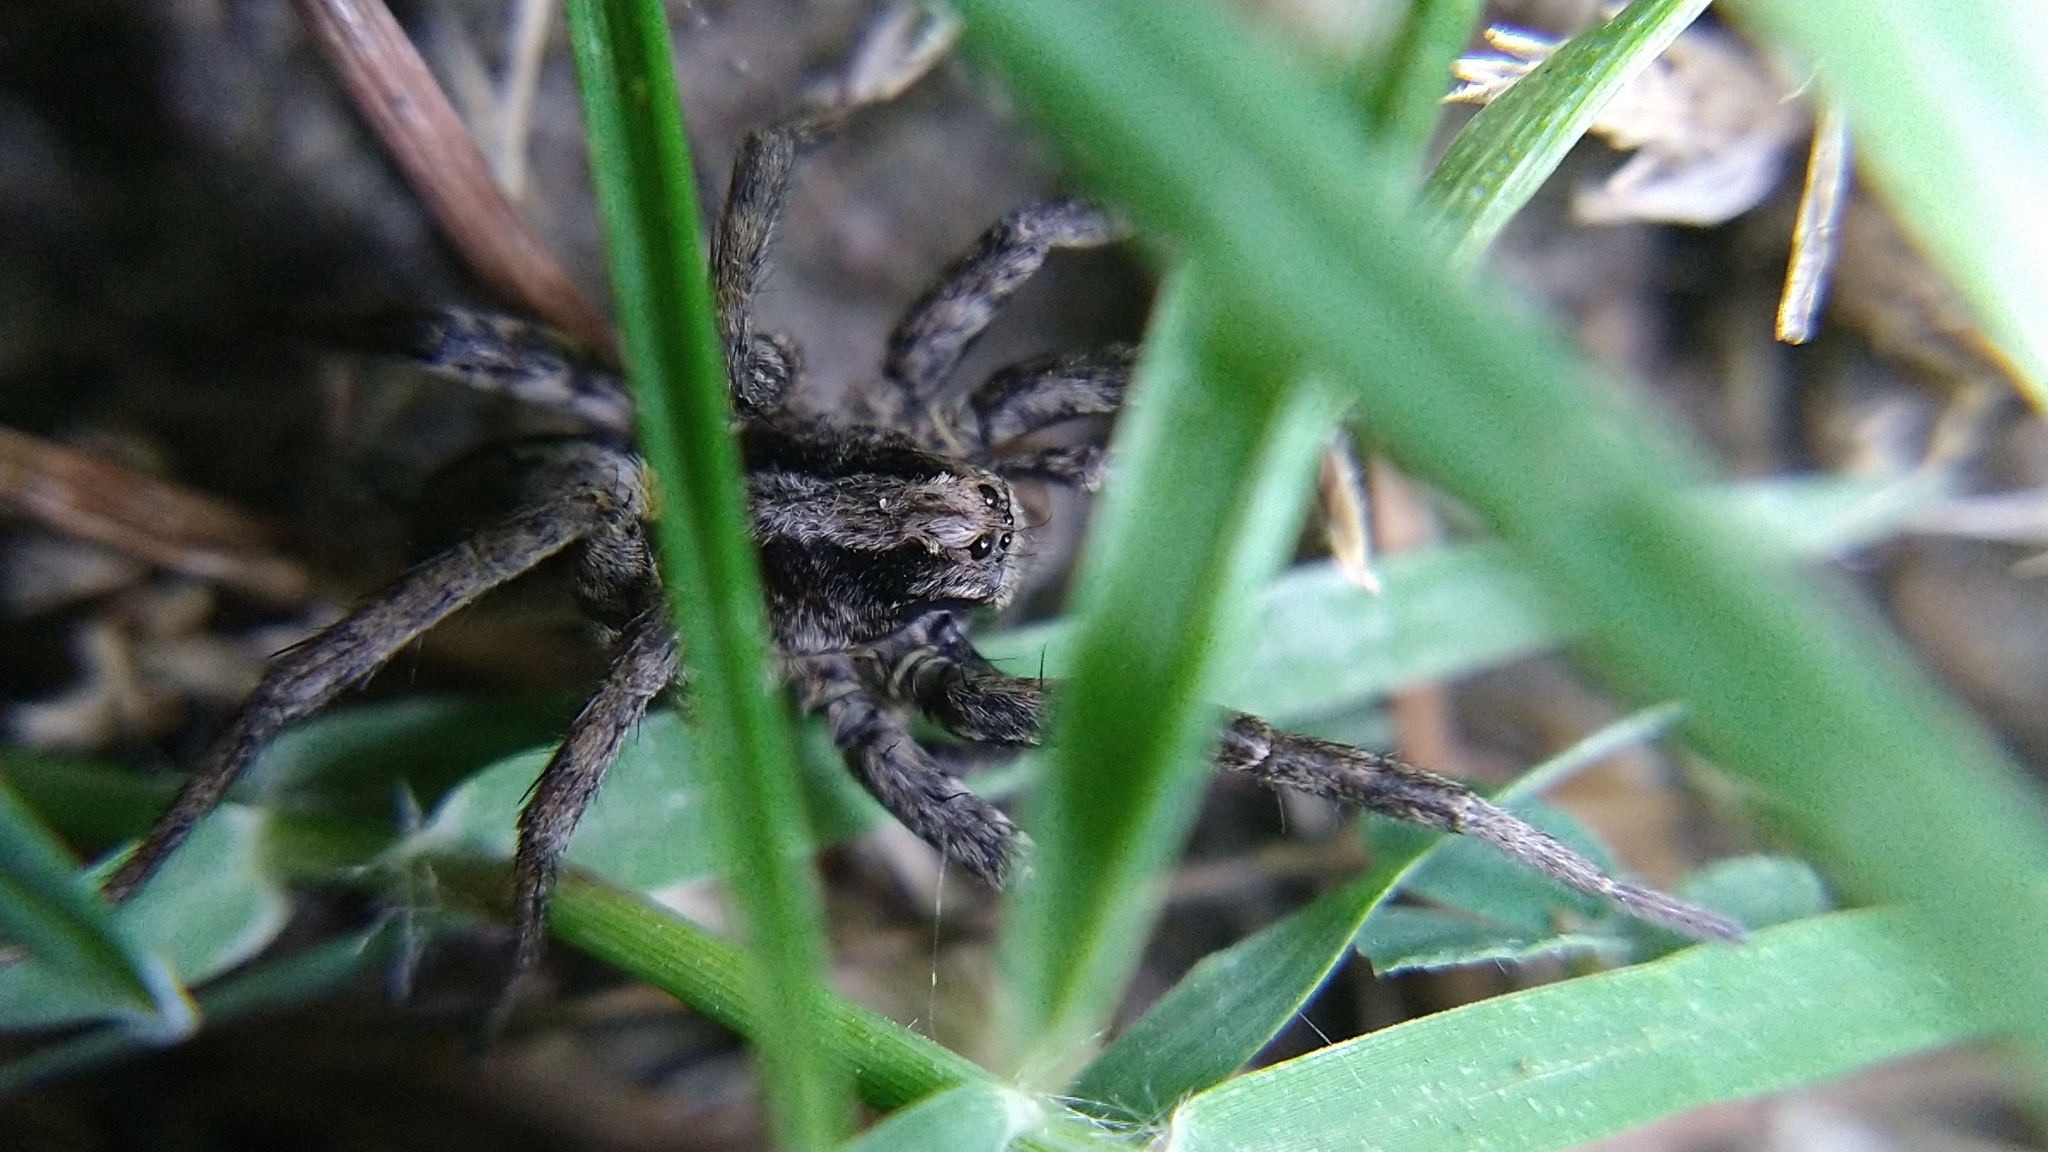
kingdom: Animalia
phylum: Arthropoda
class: Arachnida
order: Araneae
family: Lycosidae
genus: Alopecosa
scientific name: Alopecosa kochi
